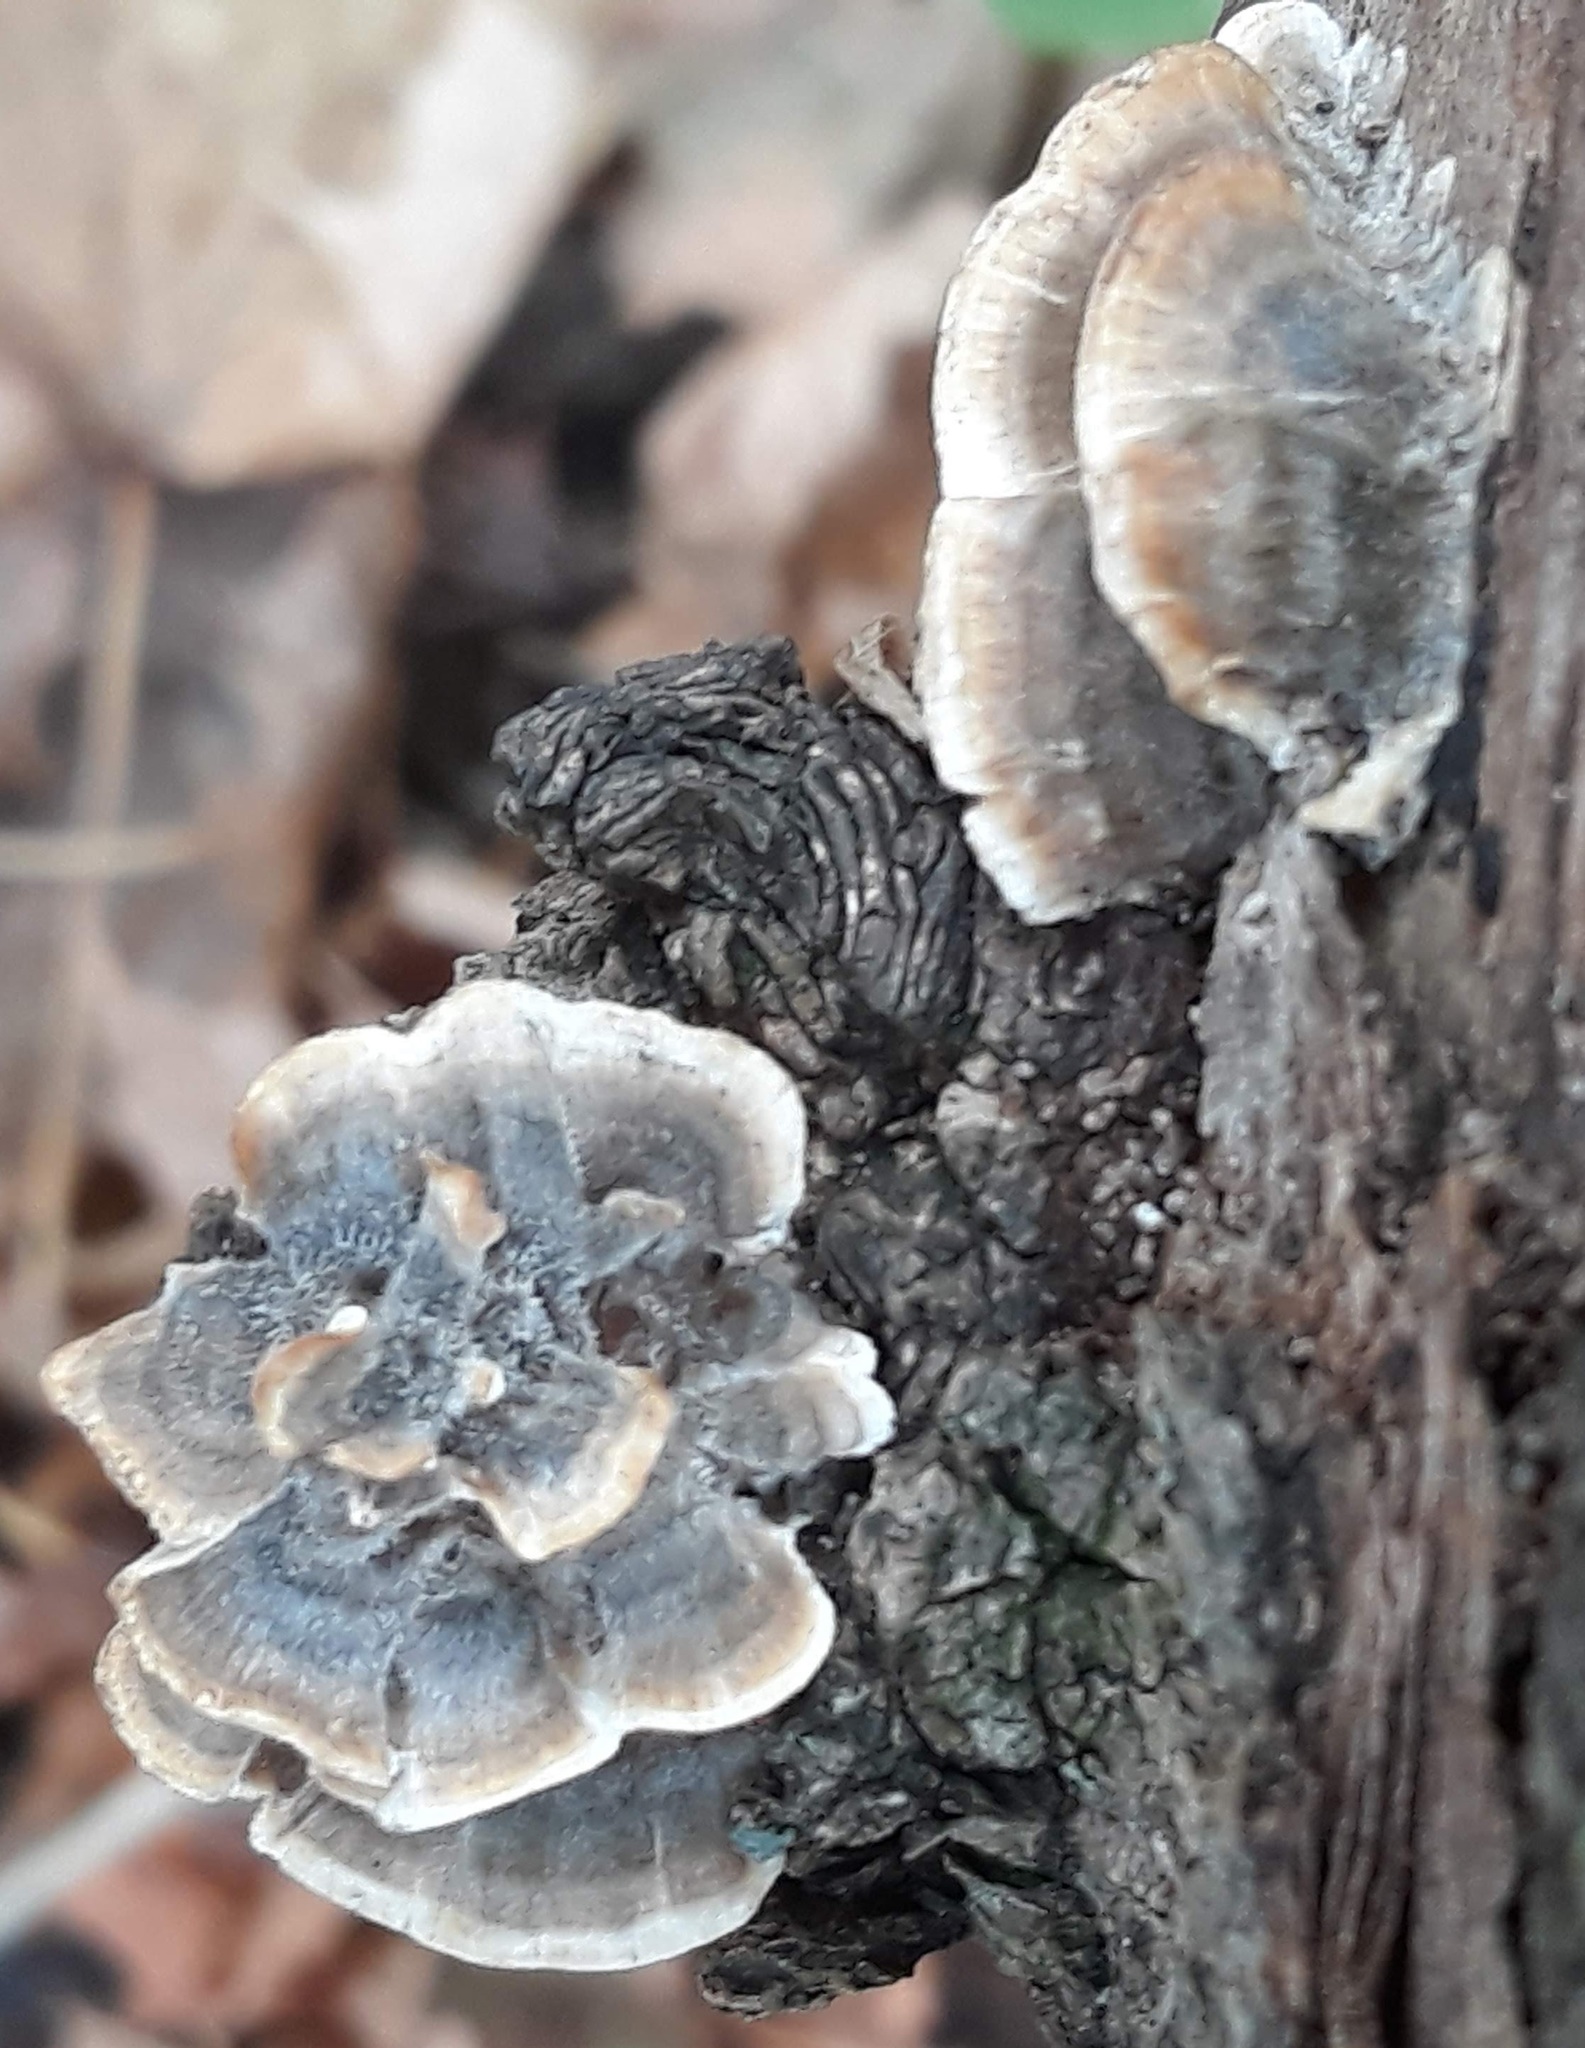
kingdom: Fungi
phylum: Basidiomycota
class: Agaricomycetes
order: Polyporales
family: Polyporaceae
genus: Trametes
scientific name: Trametes versicolor
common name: Turkeytail
